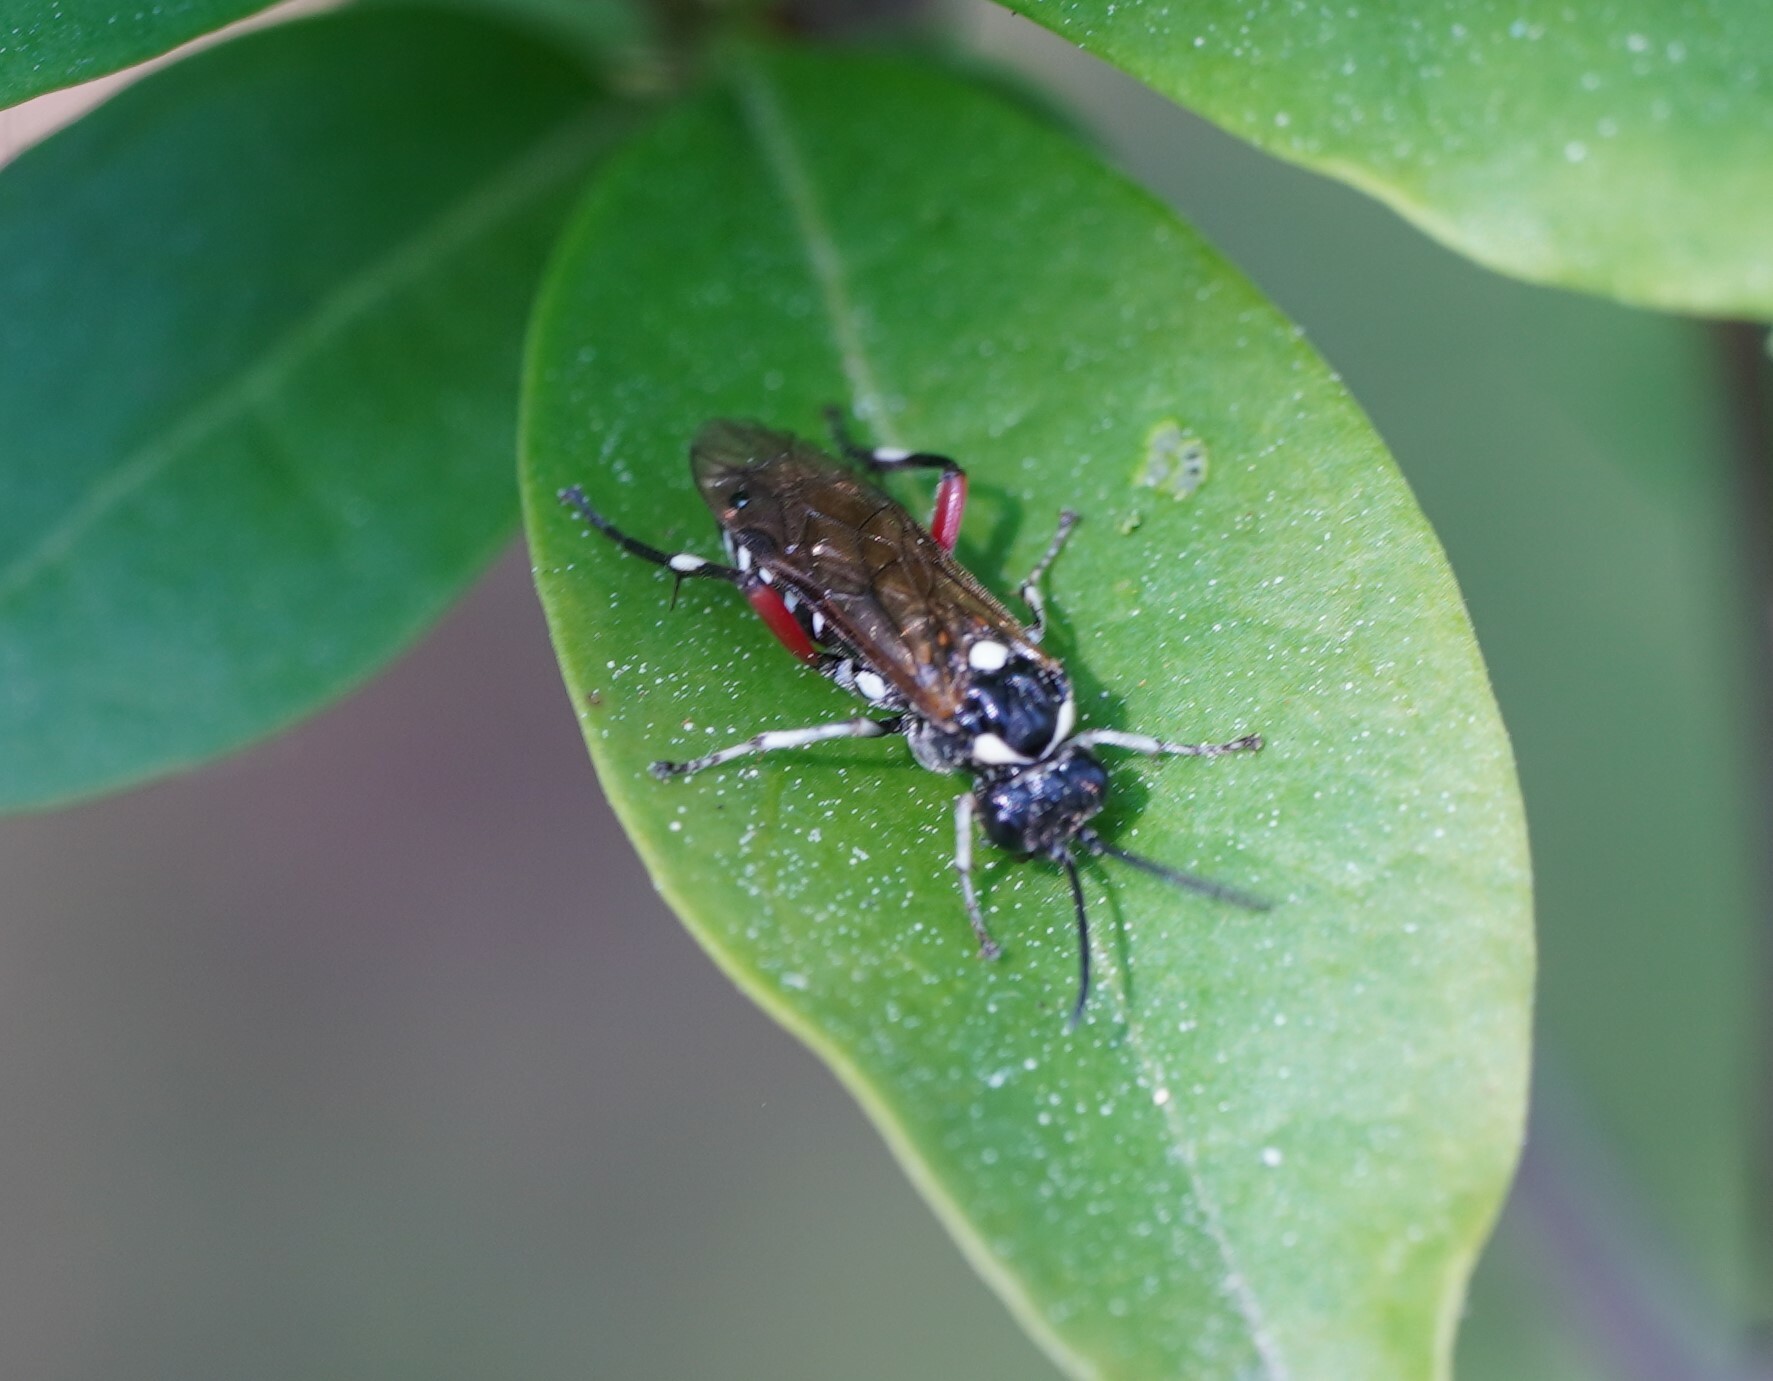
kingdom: Animalia
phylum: Arthropoda
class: Insecta
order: Hymenoptera
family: Tenthredinidae
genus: Macrophya
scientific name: Macrophya punctumalbum
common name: Sawfly
